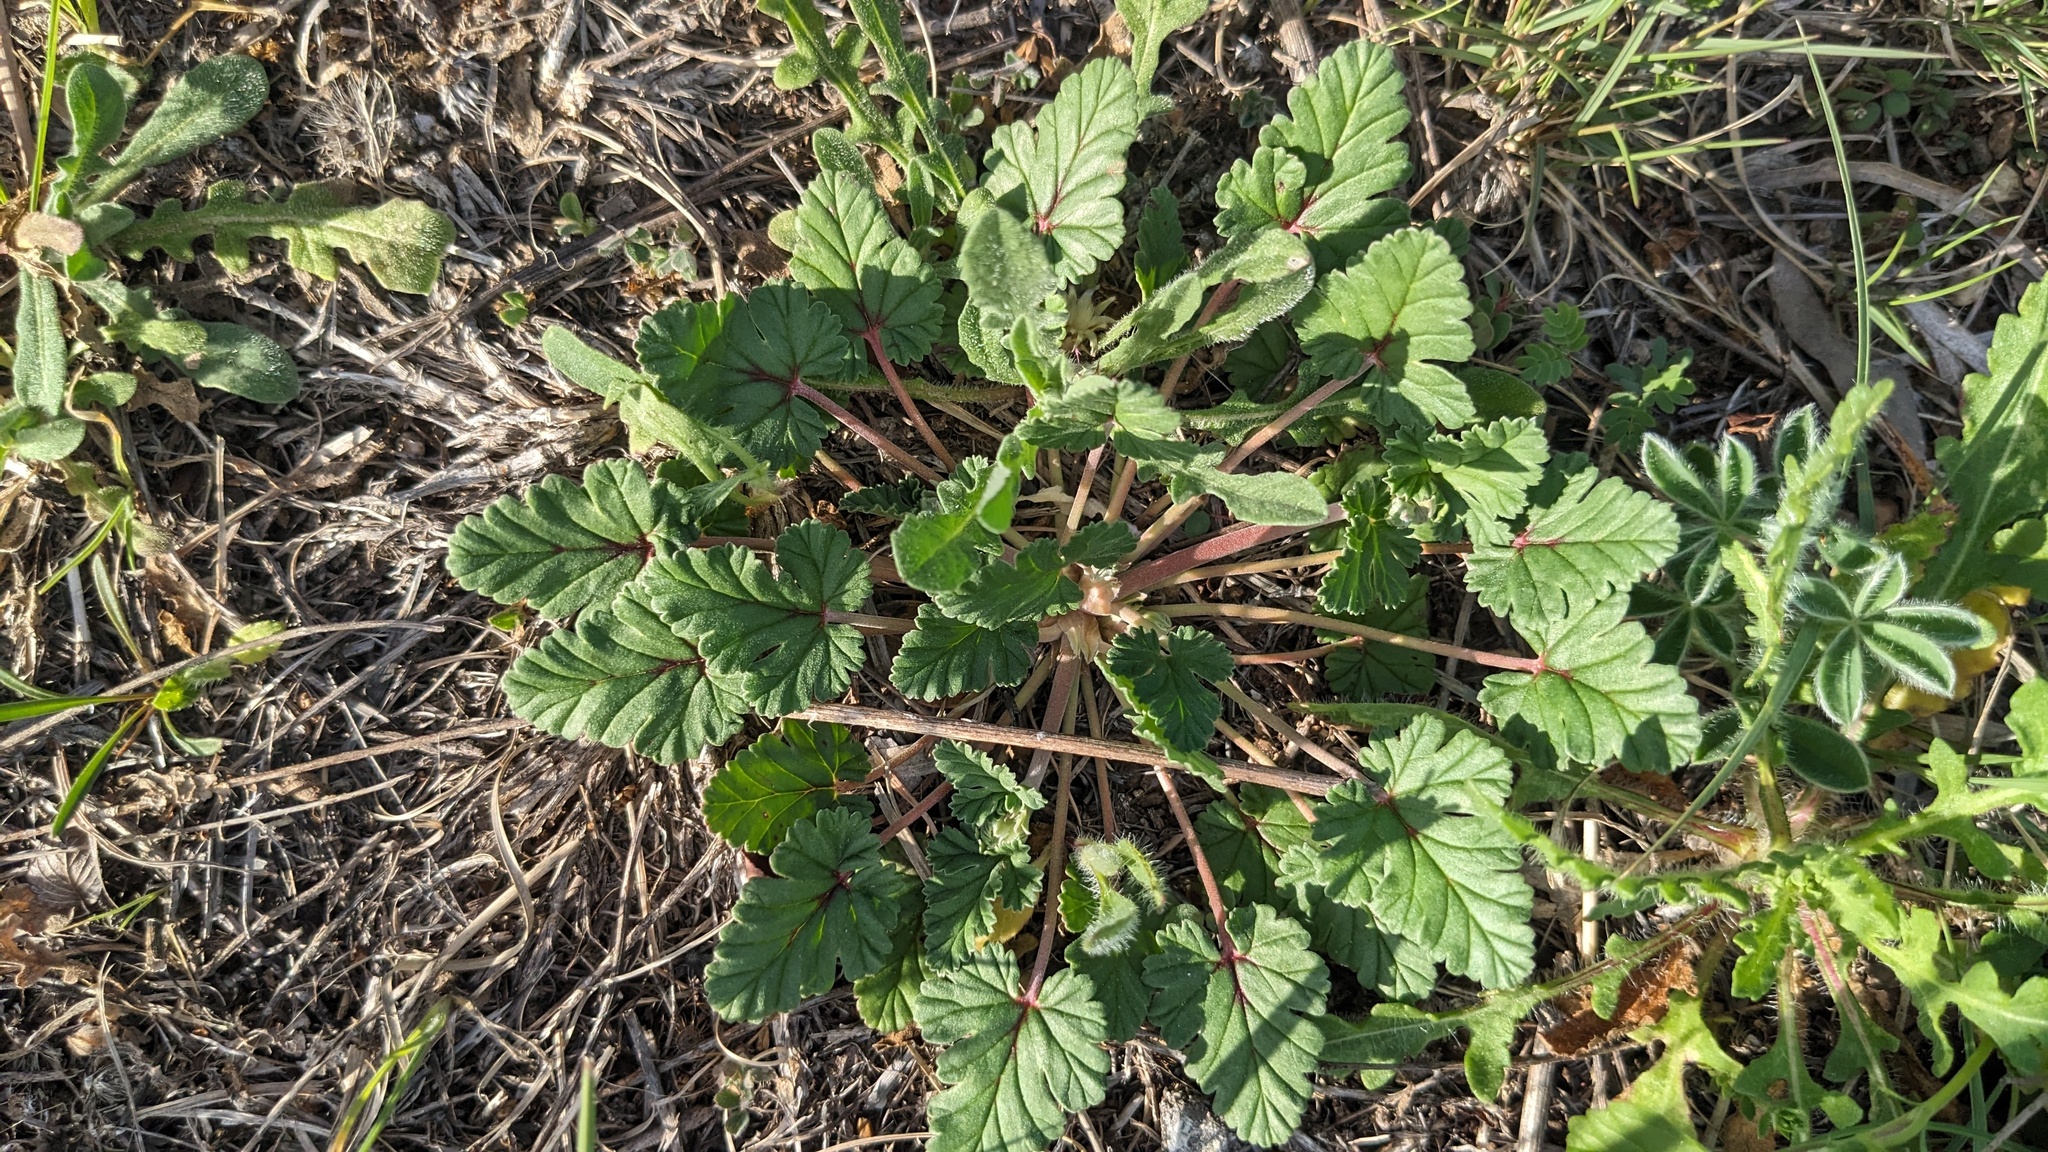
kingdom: Plantae
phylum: Tracheophyta
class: Magnoliopsida
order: Geraniales
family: Geraniaceae
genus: Erodium
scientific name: Erodium texanum
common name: Texas stork's-bill
